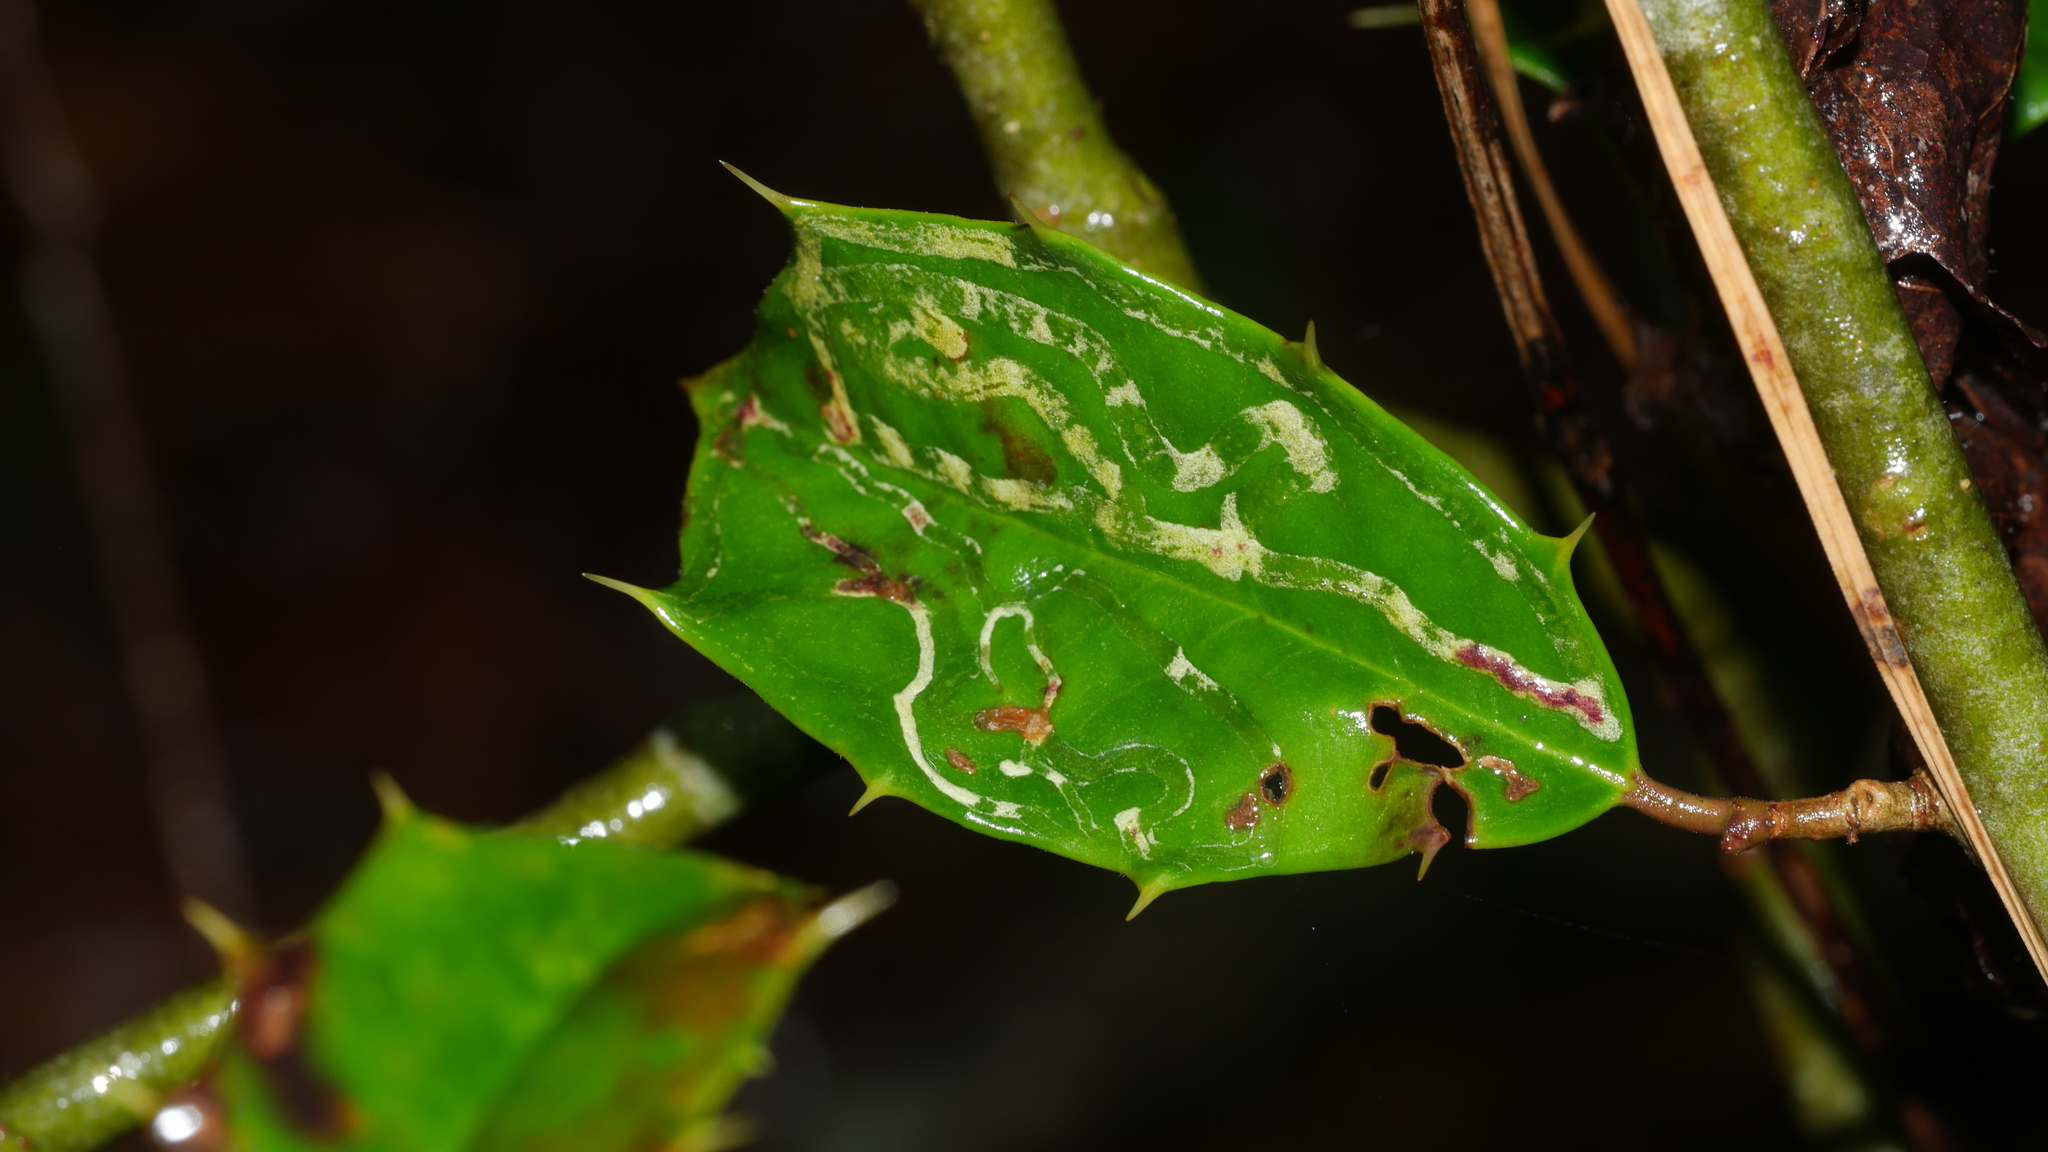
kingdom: Animalia
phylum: Arthropoda
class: Insecta
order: Diptera
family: Agromyzidae
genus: Phytomyza
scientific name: Phytomyza opacae
